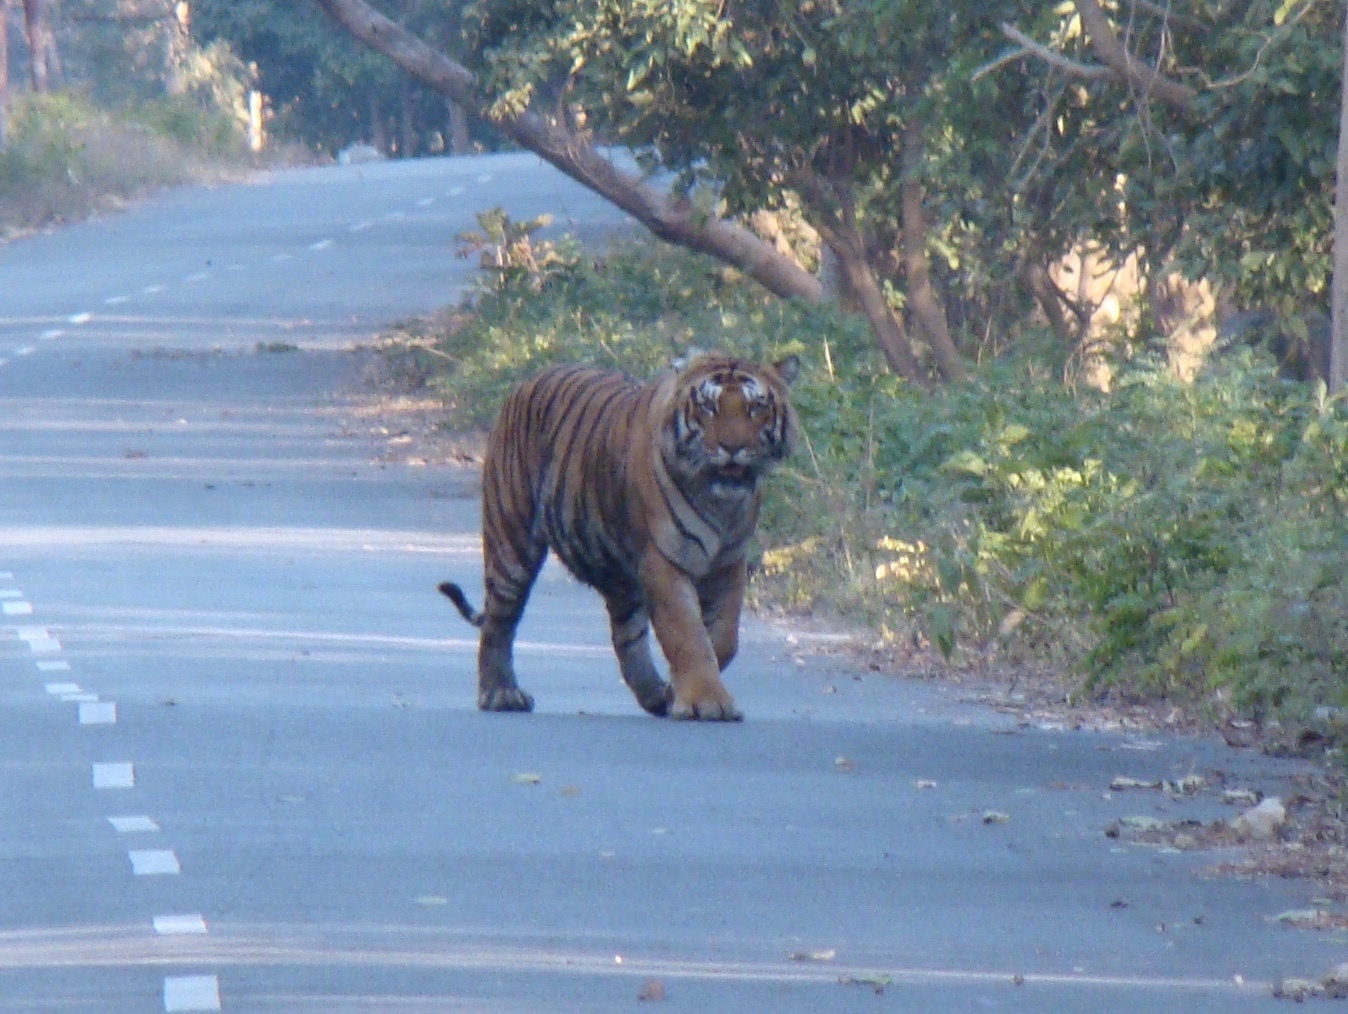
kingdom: Animalia
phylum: Chordata
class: Mammalia
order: Carnivora
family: Felidae
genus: Panthera
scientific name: Panthera tigris
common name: Tiger
